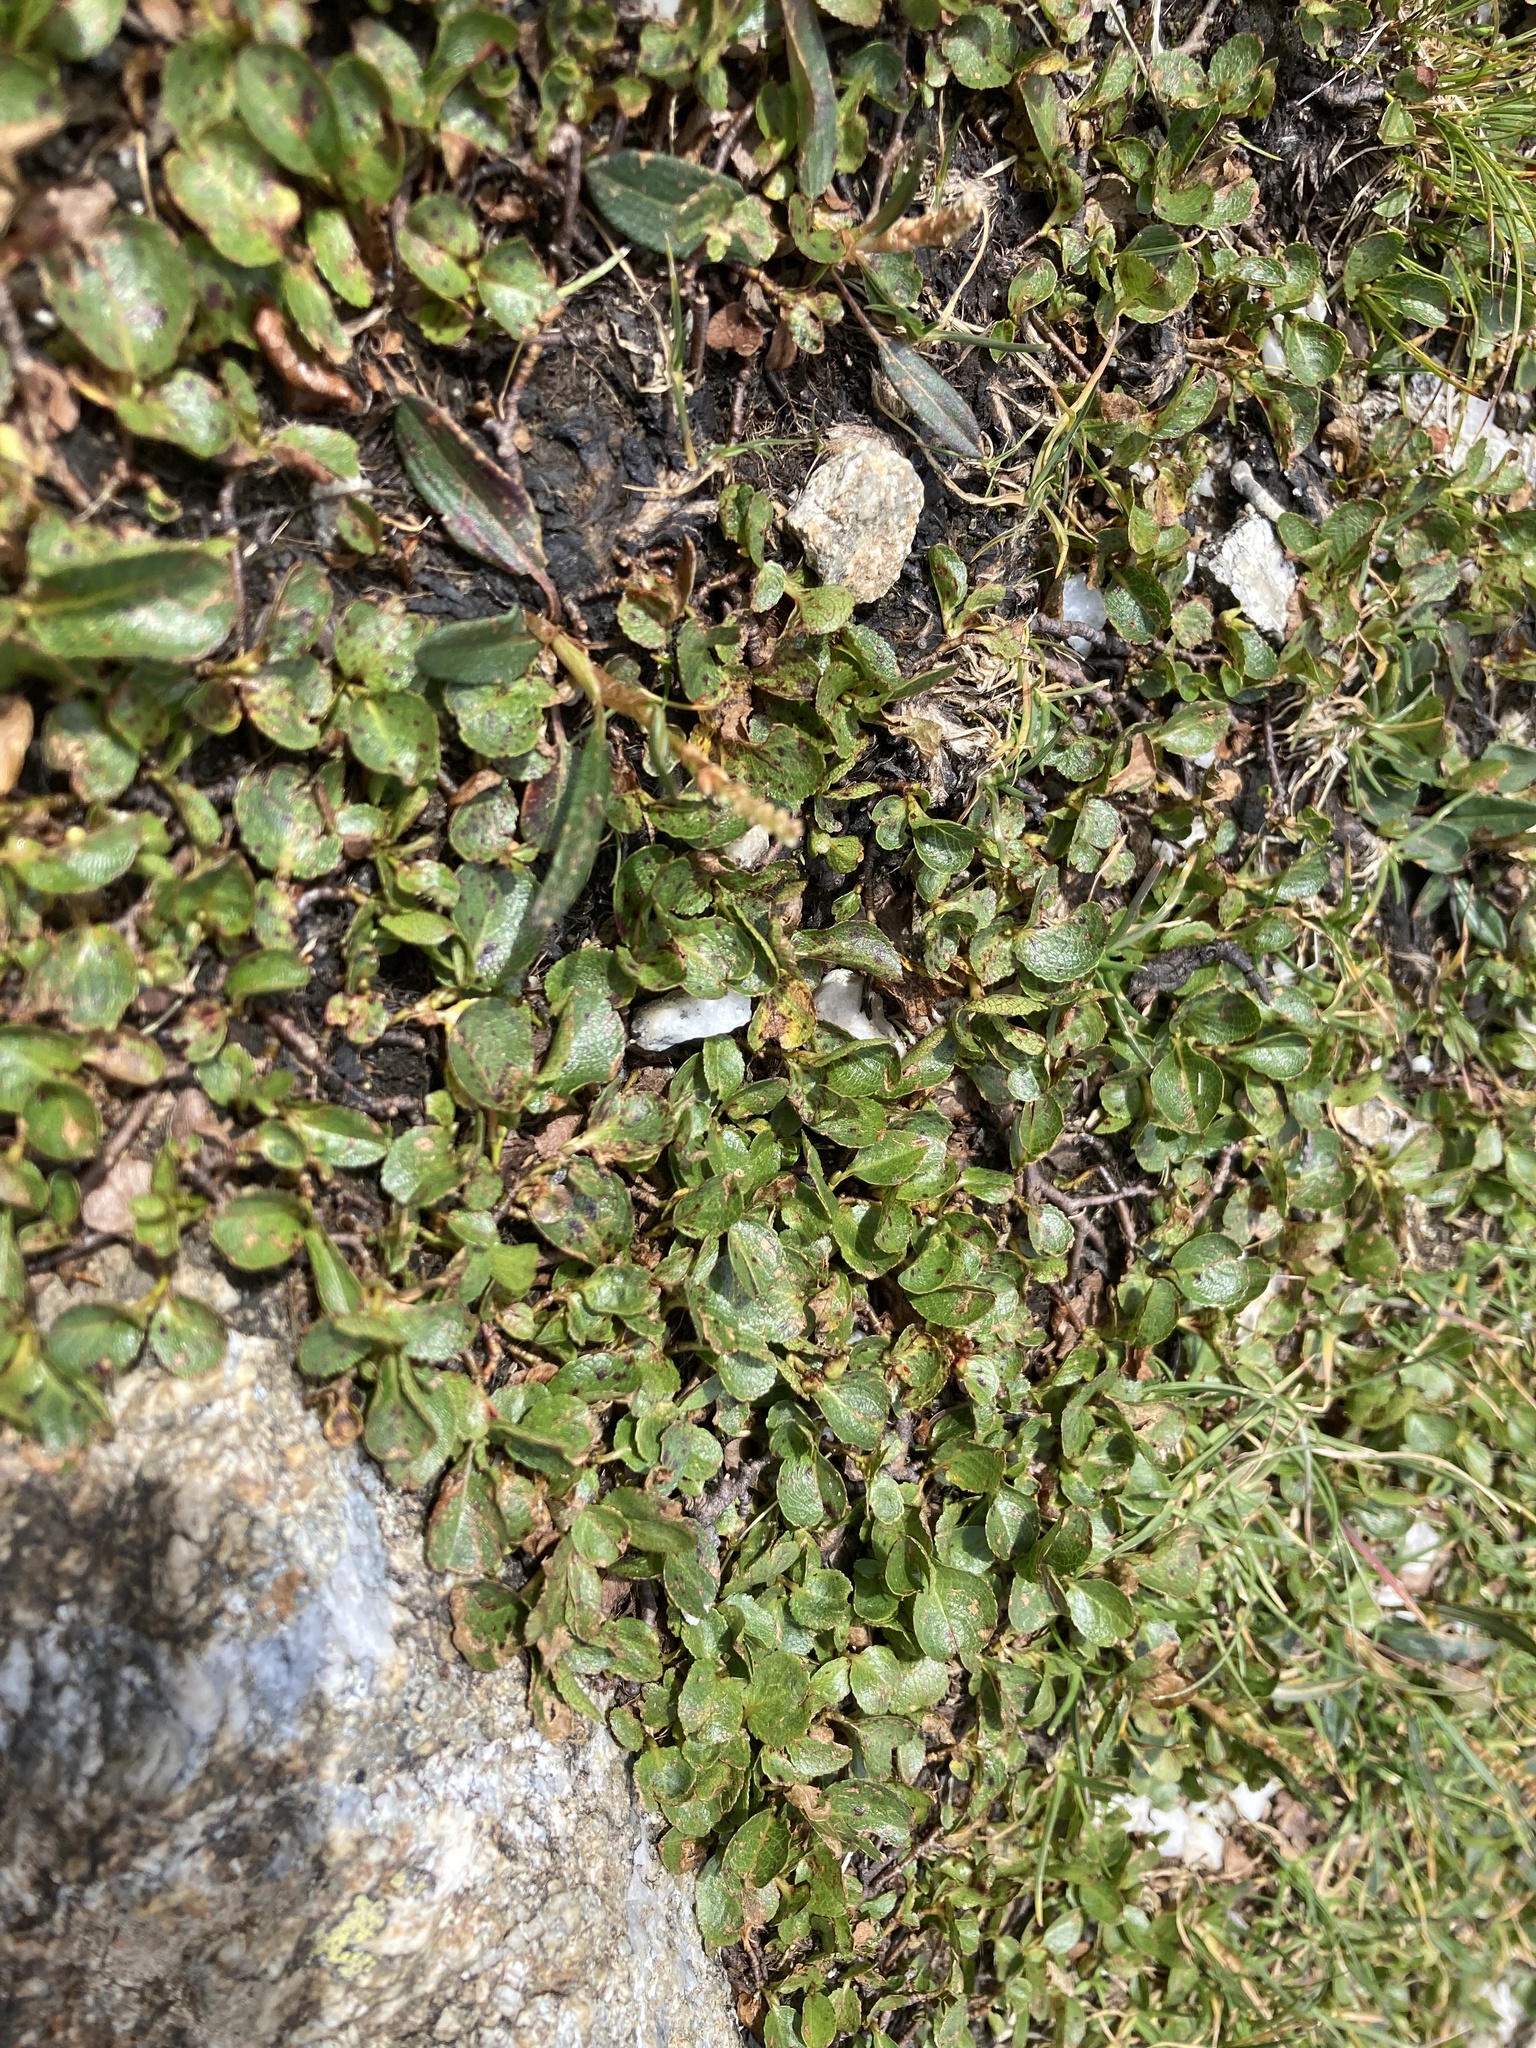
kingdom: Plantae
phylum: Tracheophyta
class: Magnoliopsida
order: Malpighiales
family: Salicaceae
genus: Salix
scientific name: Salix herbacea
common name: Dwarf willow
